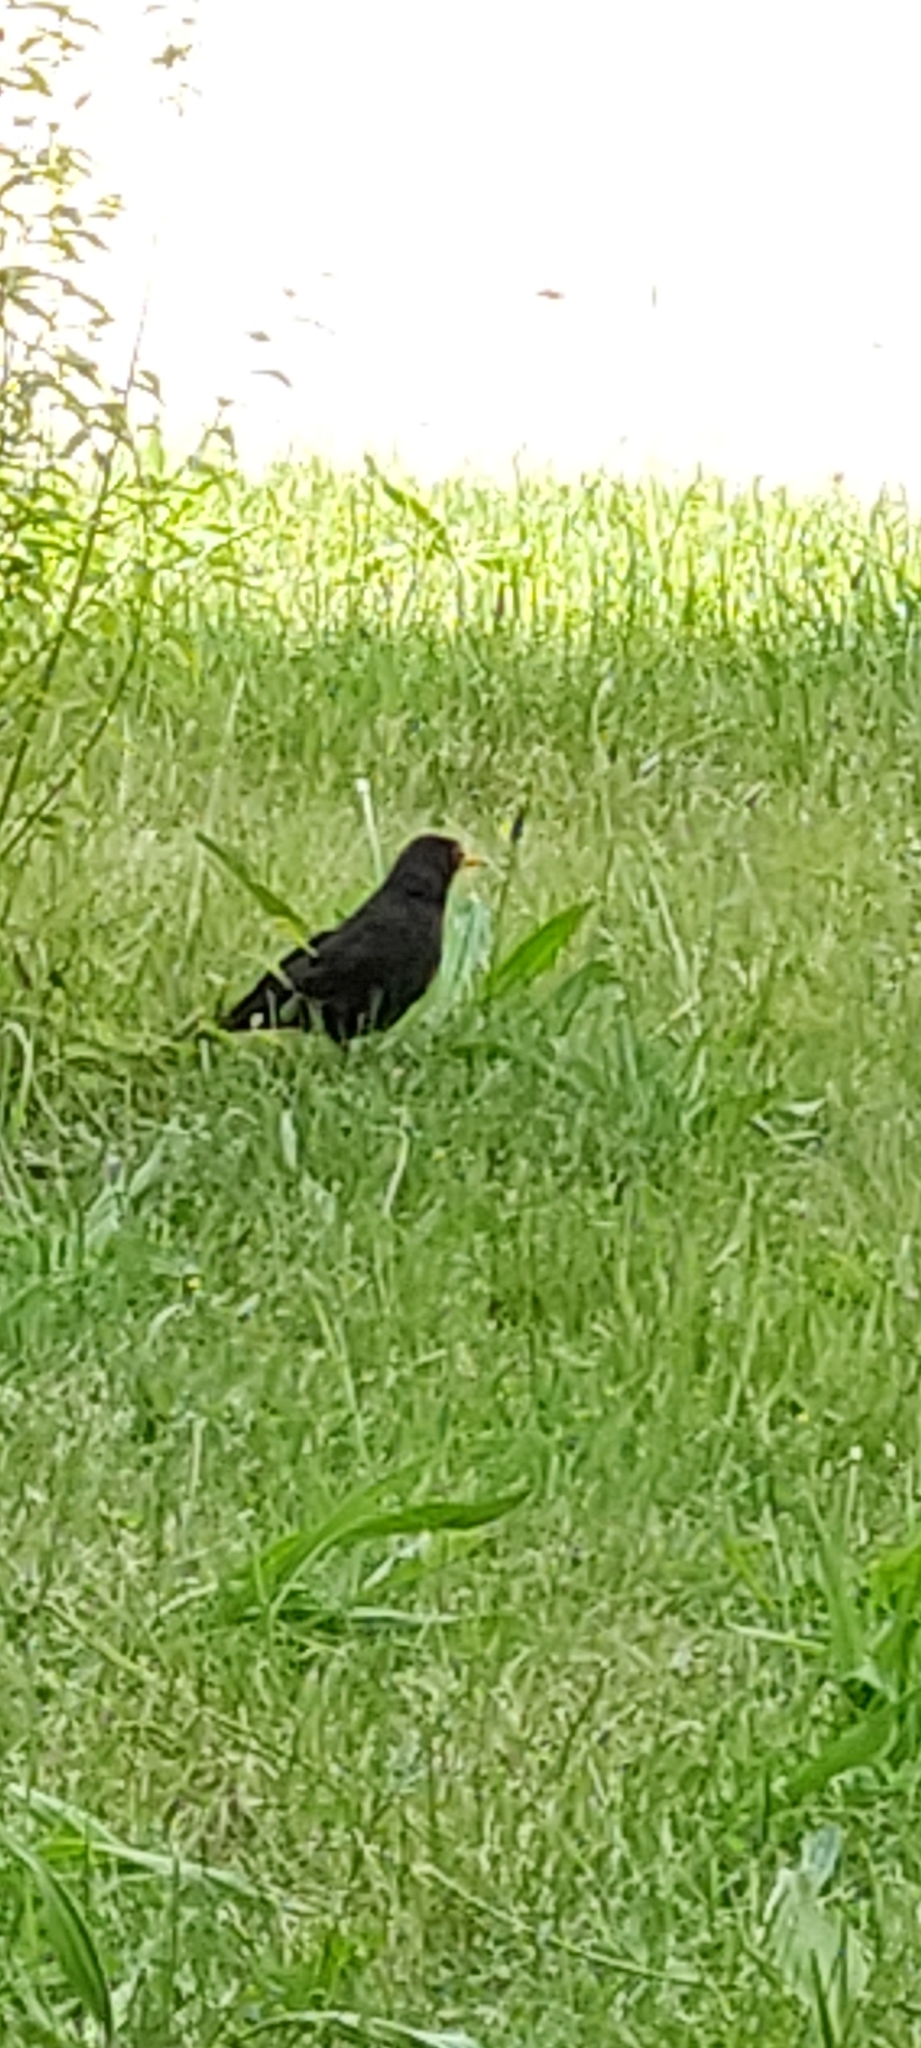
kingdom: Animalia
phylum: Chordata
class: Aves
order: Passeriformes
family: Turdidae
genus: Turdus
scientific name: Turdus merula
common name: Common blackbird
